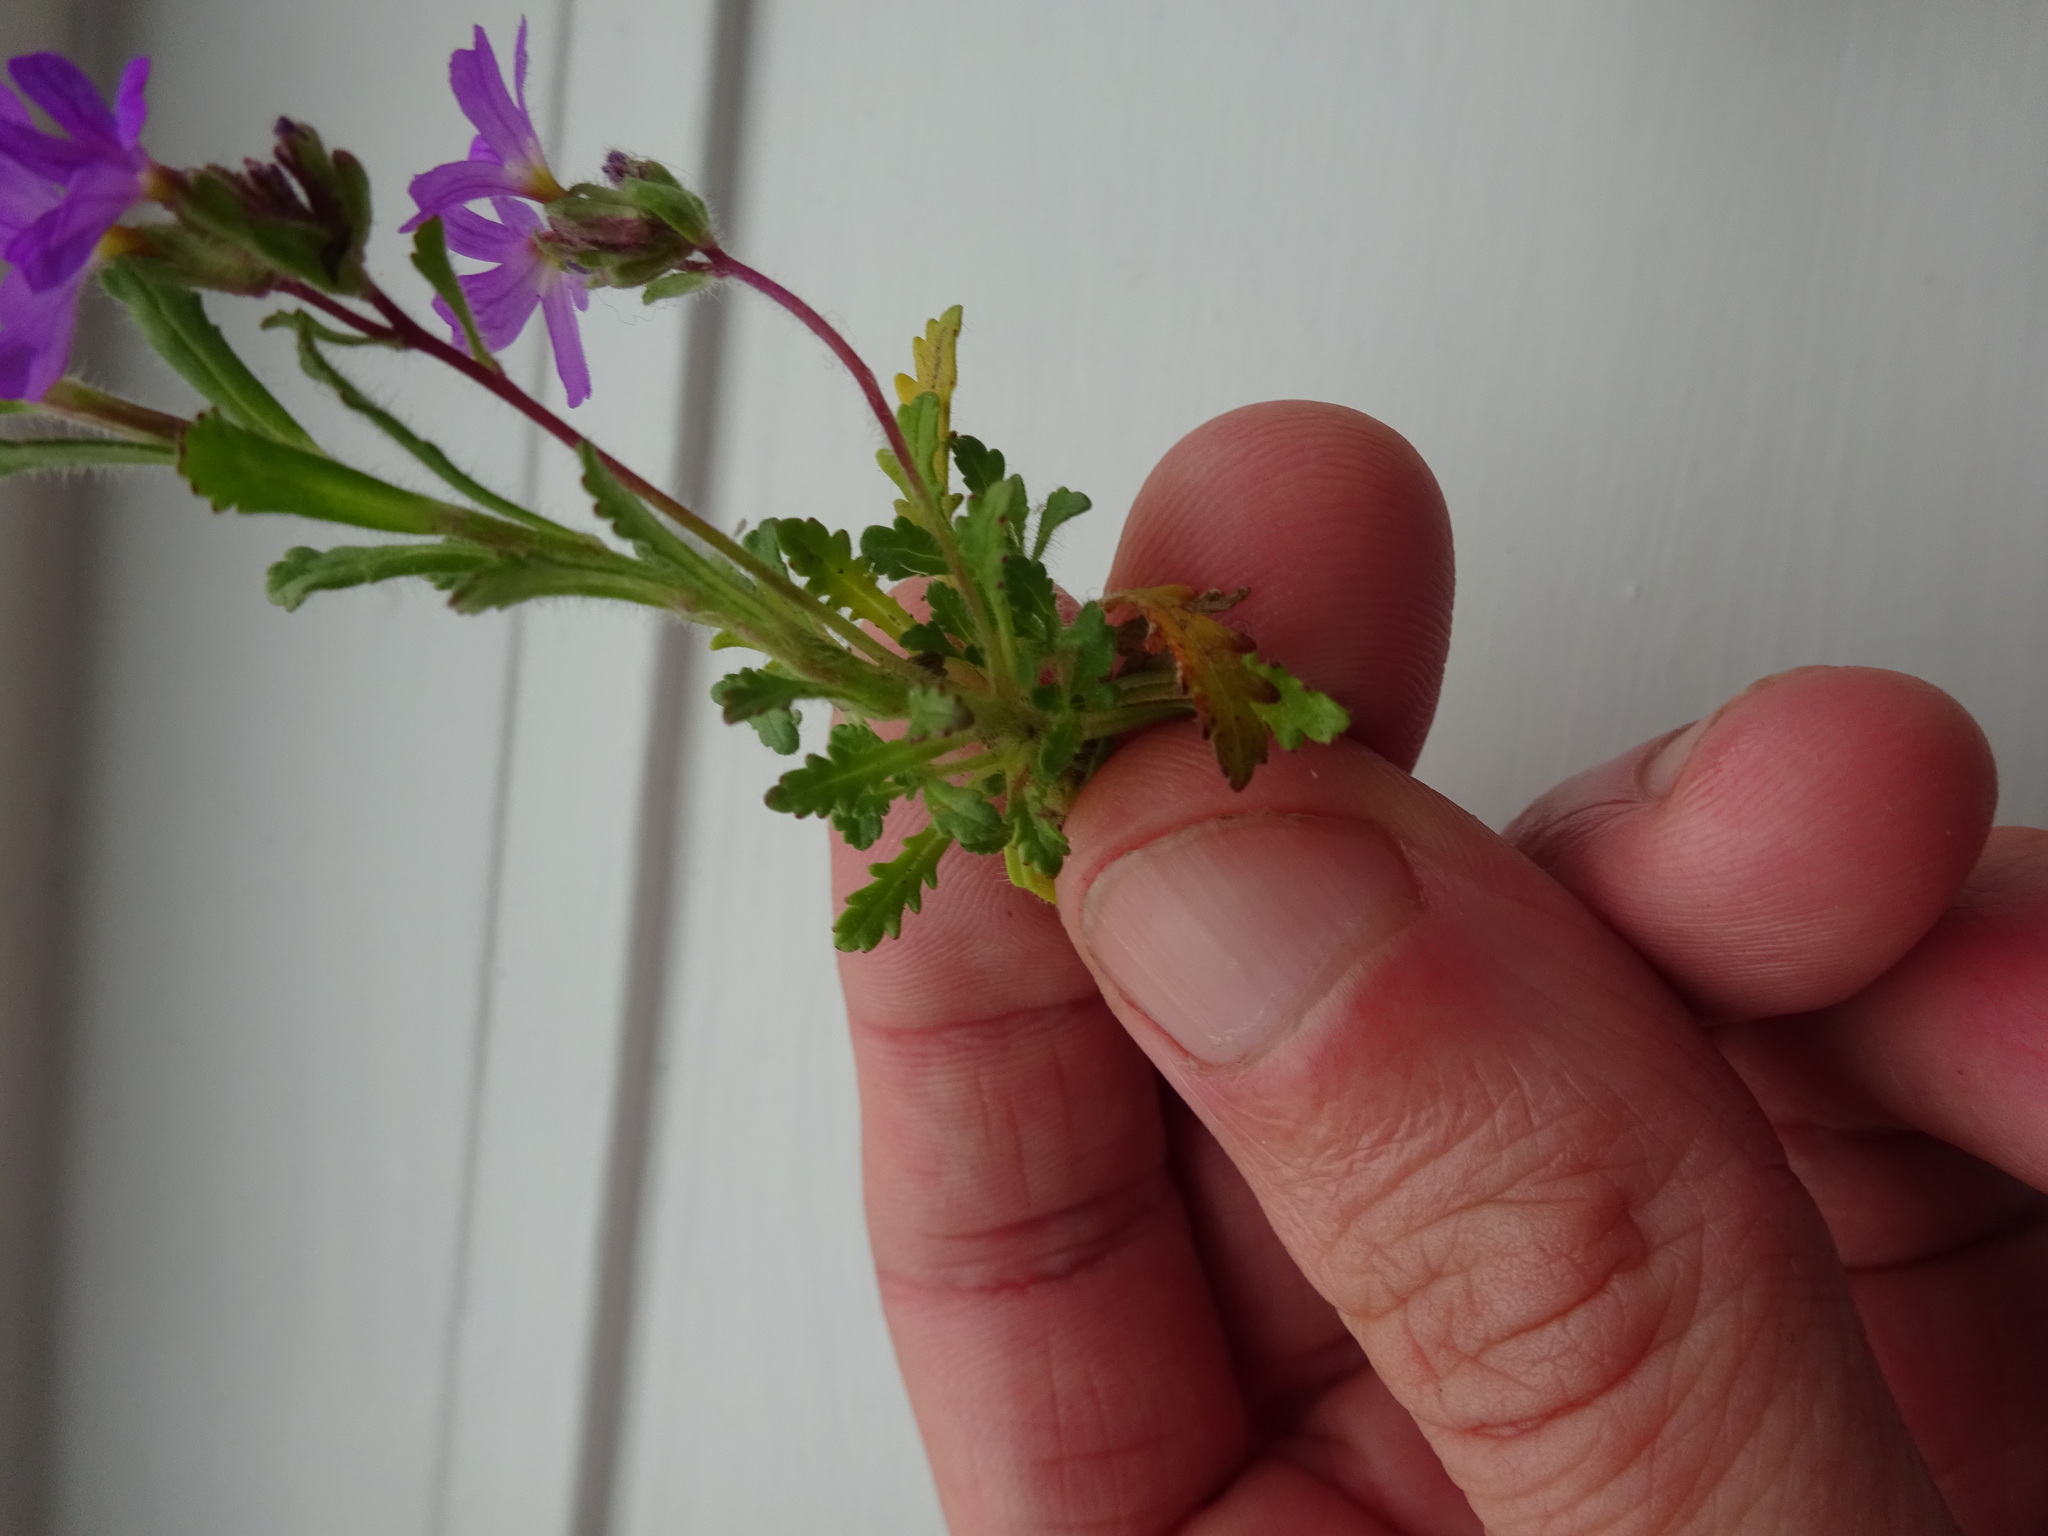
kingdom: Plantae
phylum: Tracheophyta
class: Magnoliopsida
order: Lamiales
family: Plantaginaceae
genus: Erinus
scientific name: Erinus alpinus
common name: Fairy foxglove
